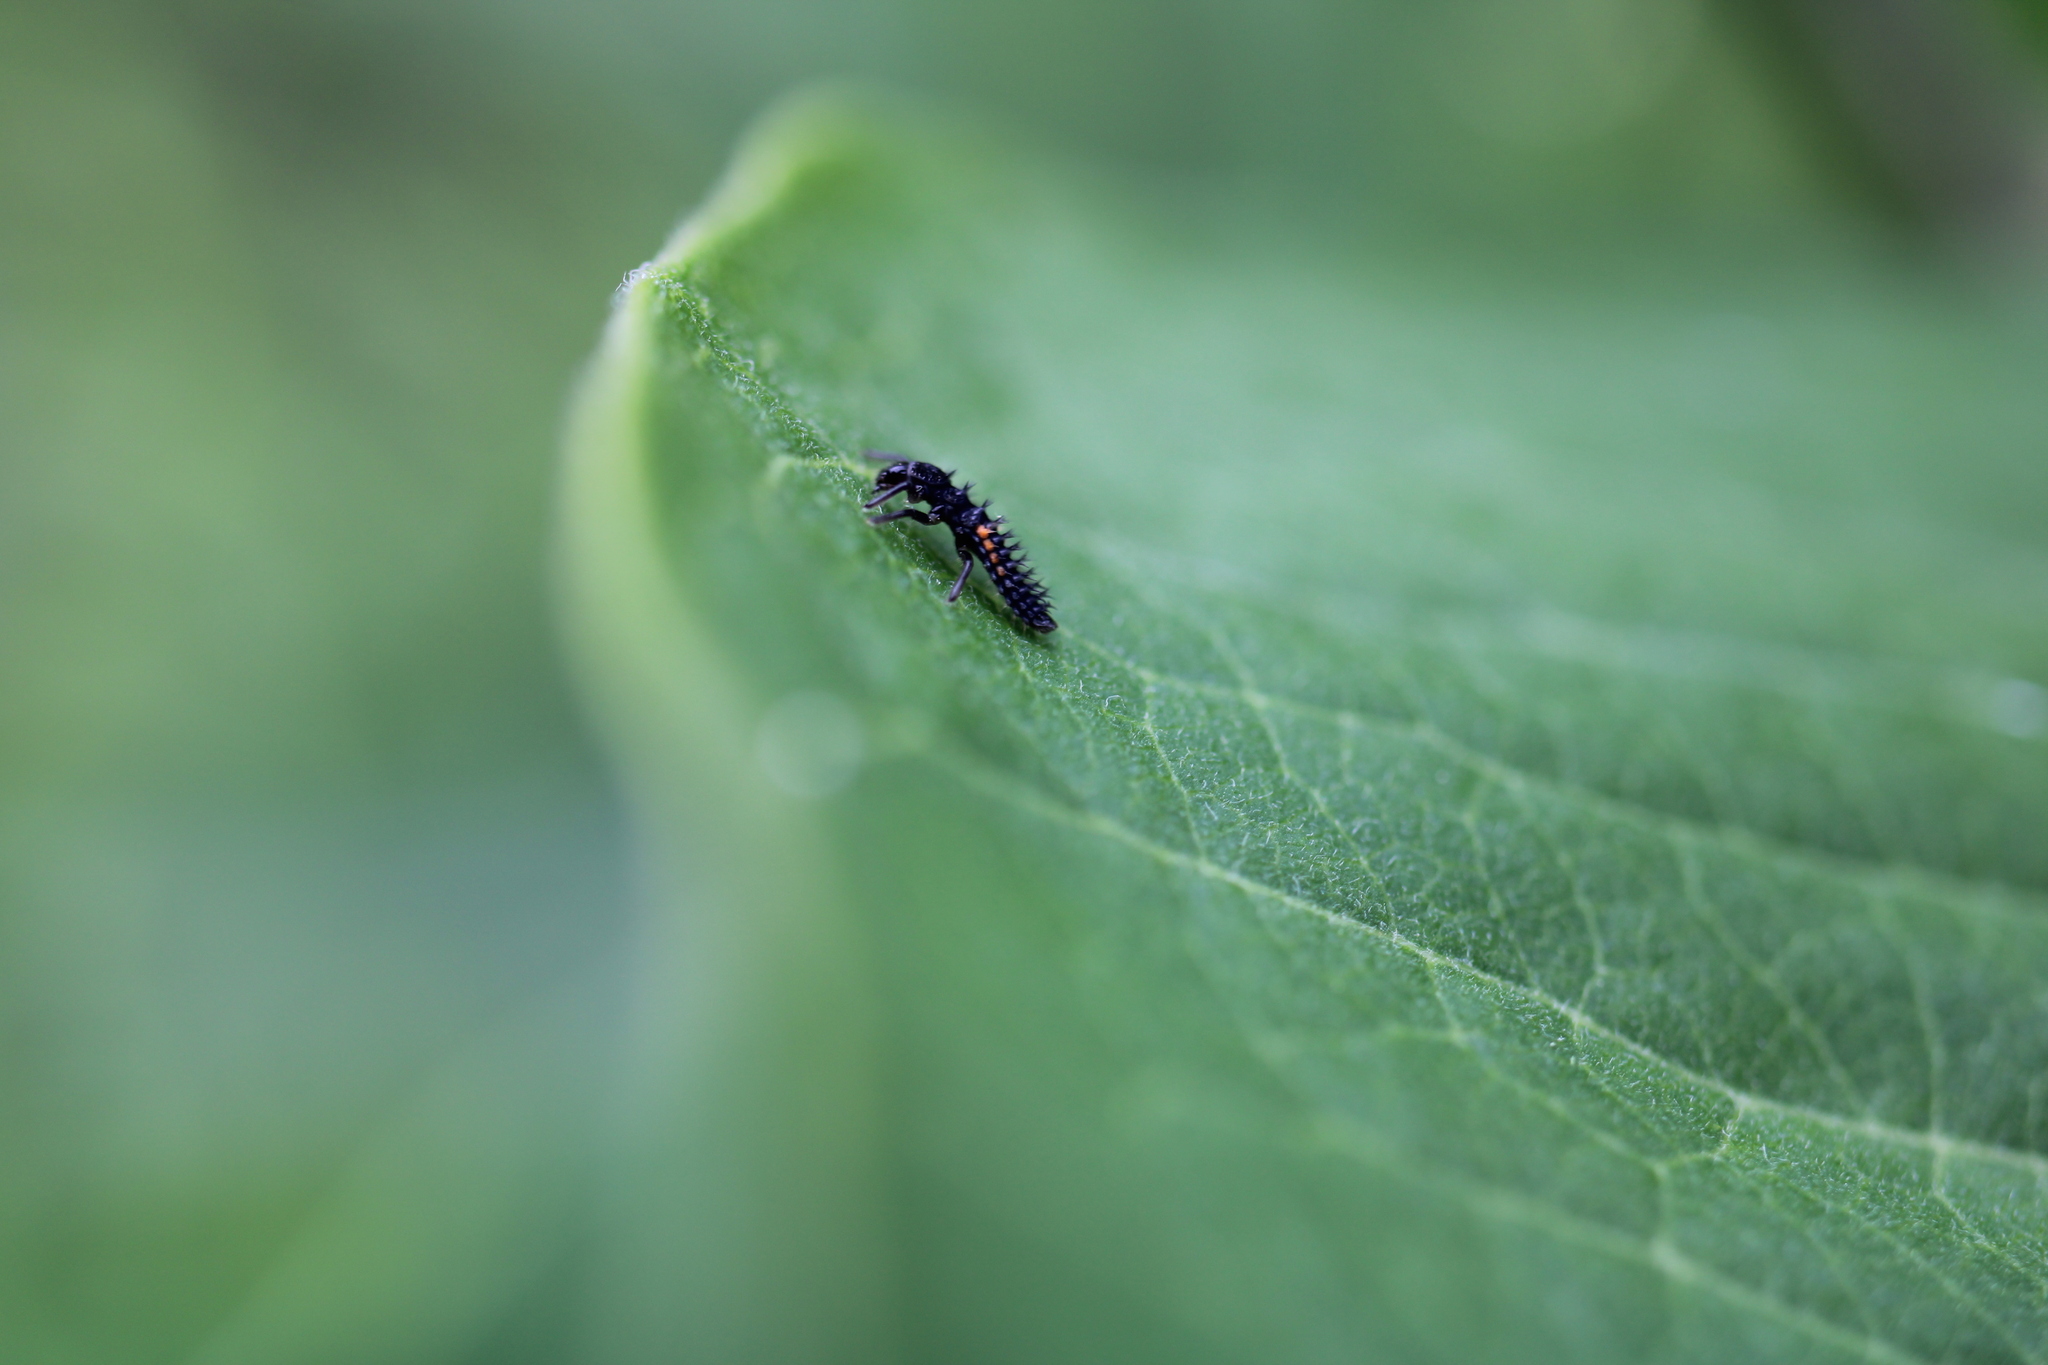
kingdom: Animalia
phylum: Arthropoda
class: Insecta
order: Coleoptera
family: Coccinellidae
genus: Harmonia
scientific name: Harmonia axyridis
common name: Harlequin ladybird
